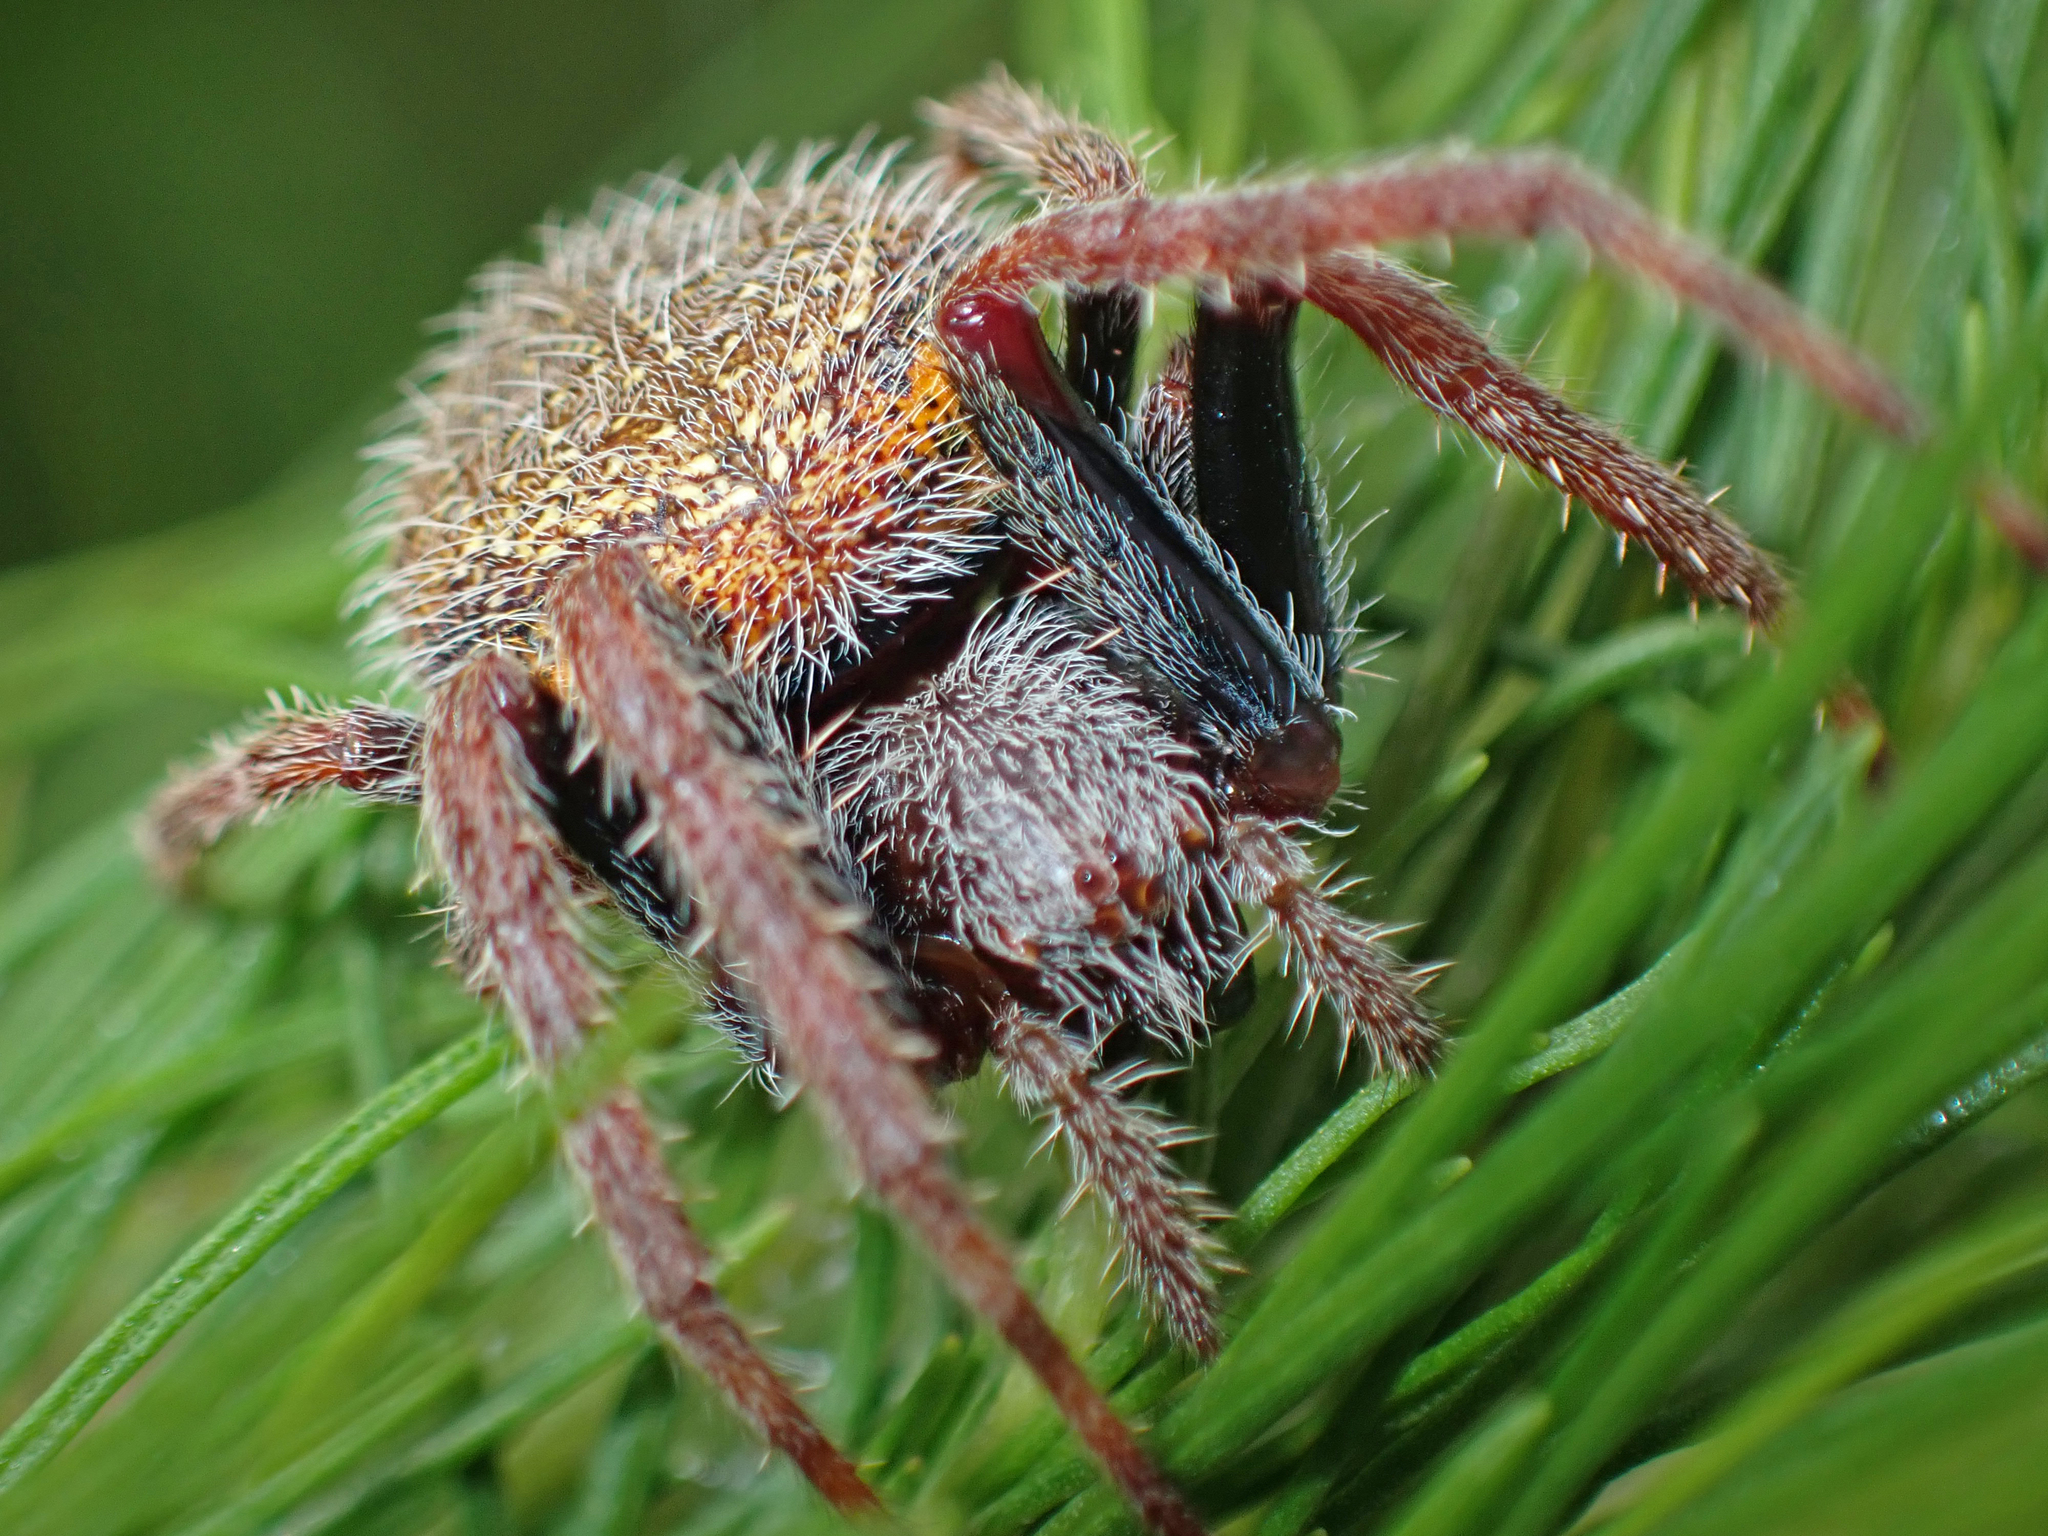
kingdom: Animalia
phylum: Arthropoda
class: Arachnida
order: Araneae
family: Araneidae
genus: Eriophora
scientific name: Eriophora ravilla
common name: Orb weavers
